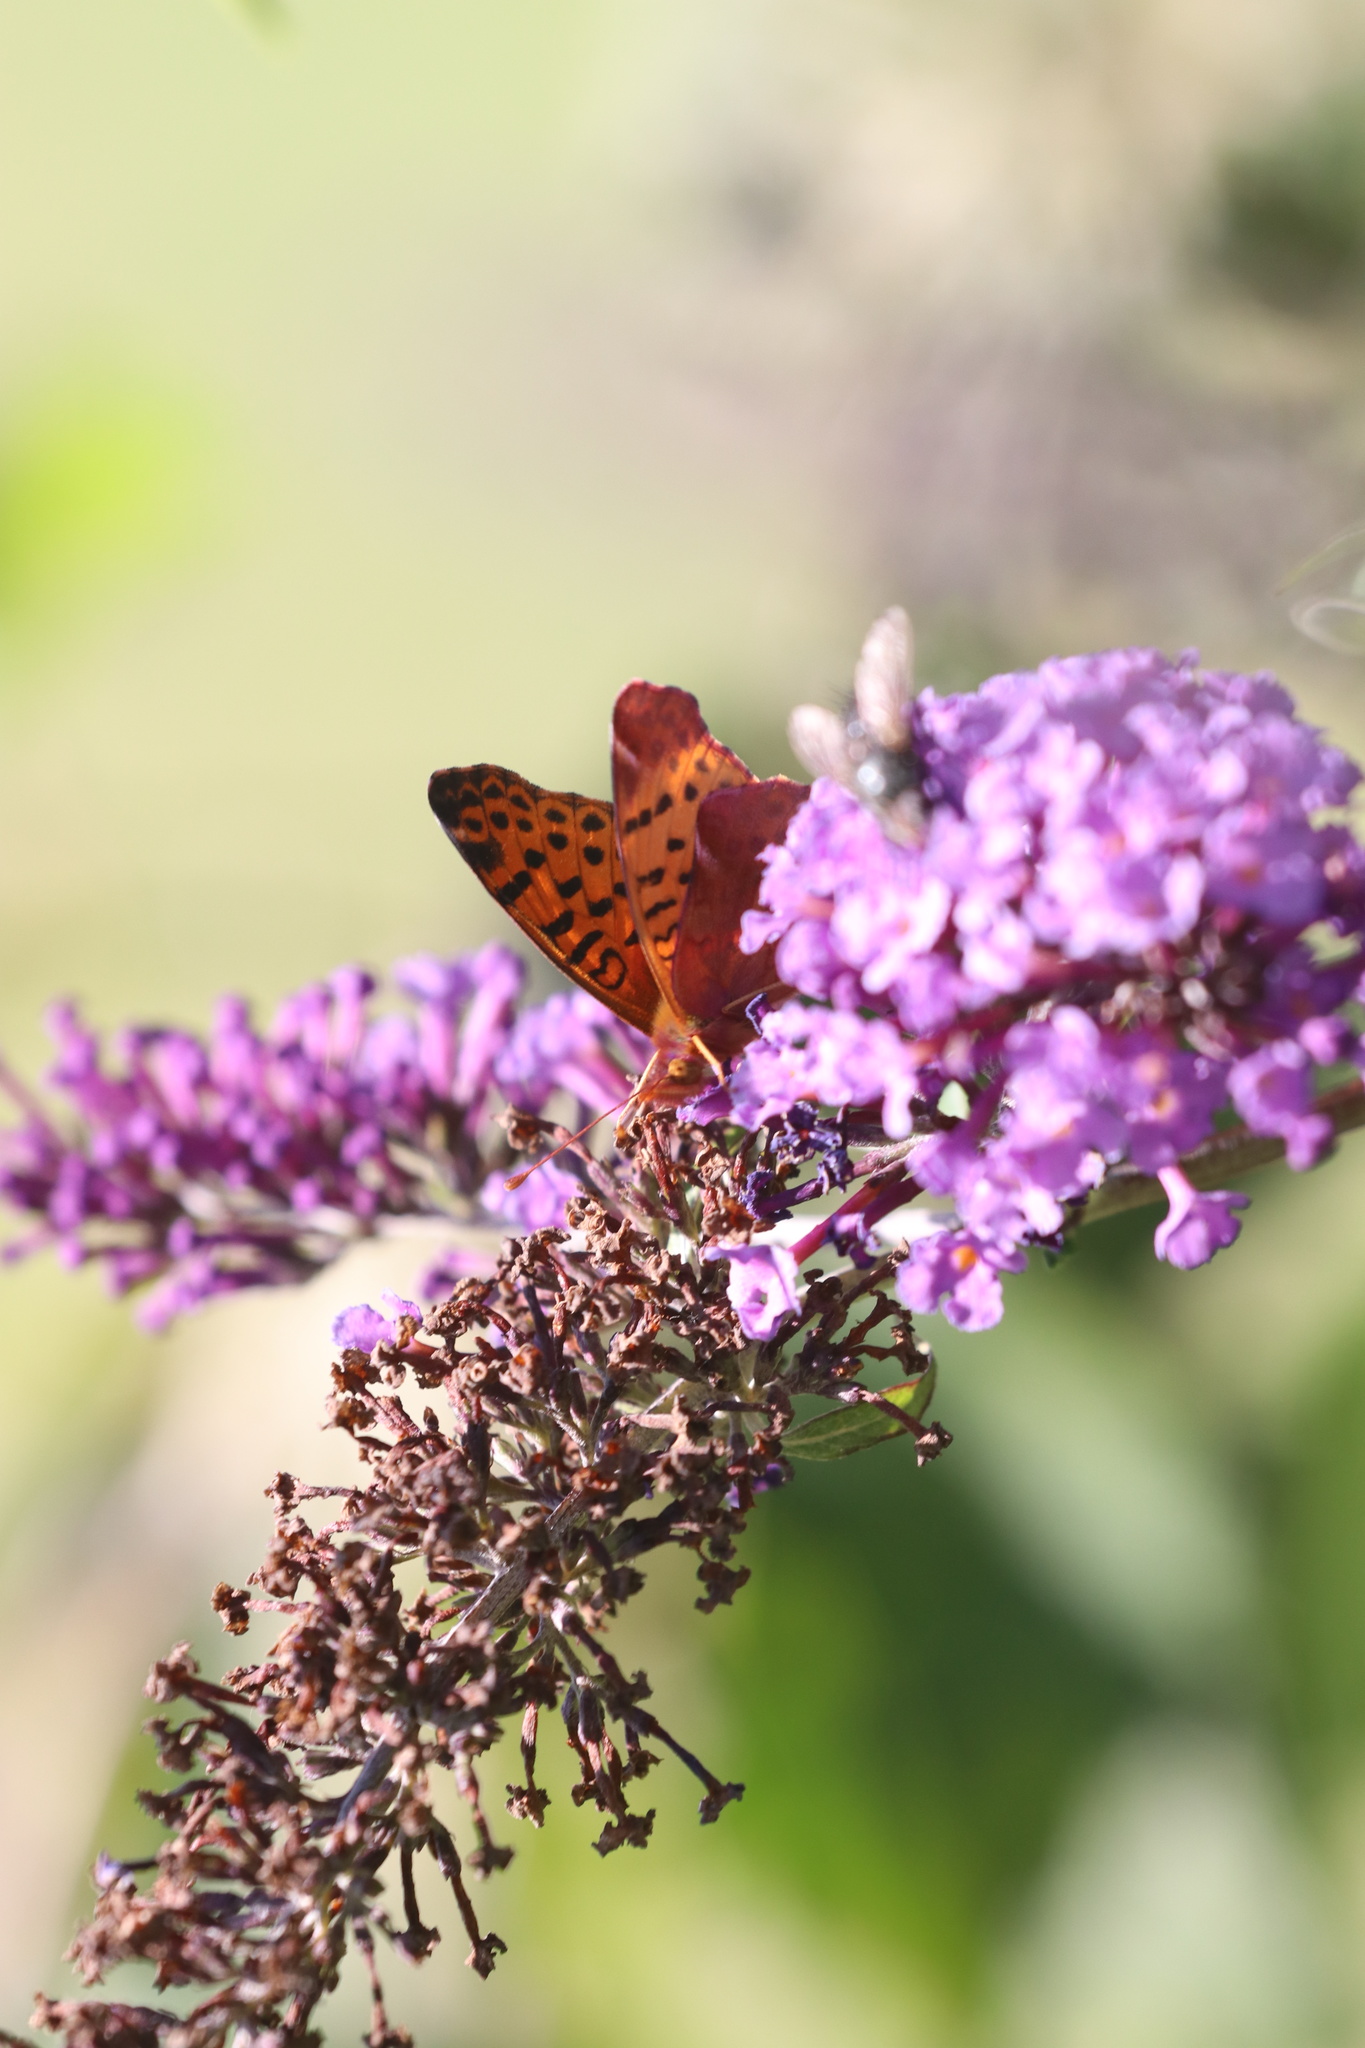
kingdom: Animalia
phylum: Arthropoda
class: Insecta
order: Lepidoptera
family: Nymphalidae
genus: Issoria
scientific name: Issoria Yramea cytheris
